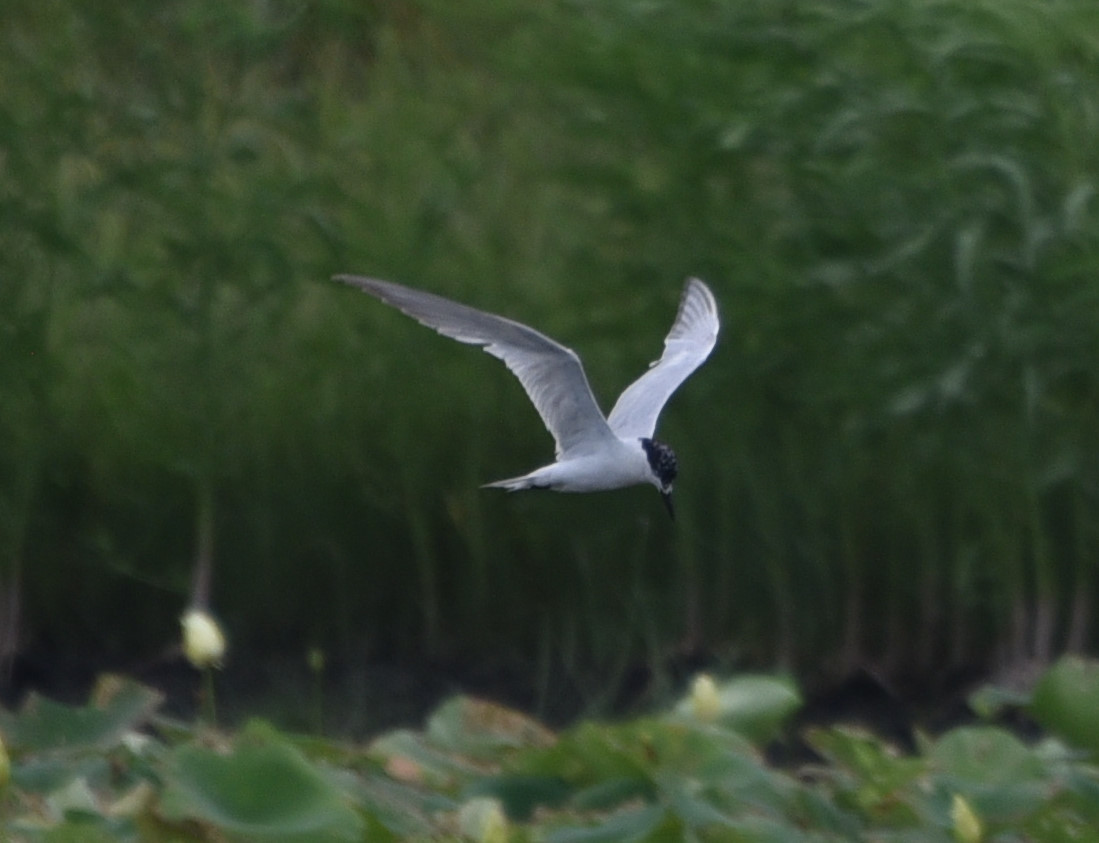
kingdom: Animalia
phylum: Chordata
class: Aves
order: Charadriiformes
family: Laridae
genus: Gelochelidon
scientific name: Gelochelidon nilotica
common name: Gull-billed tern
